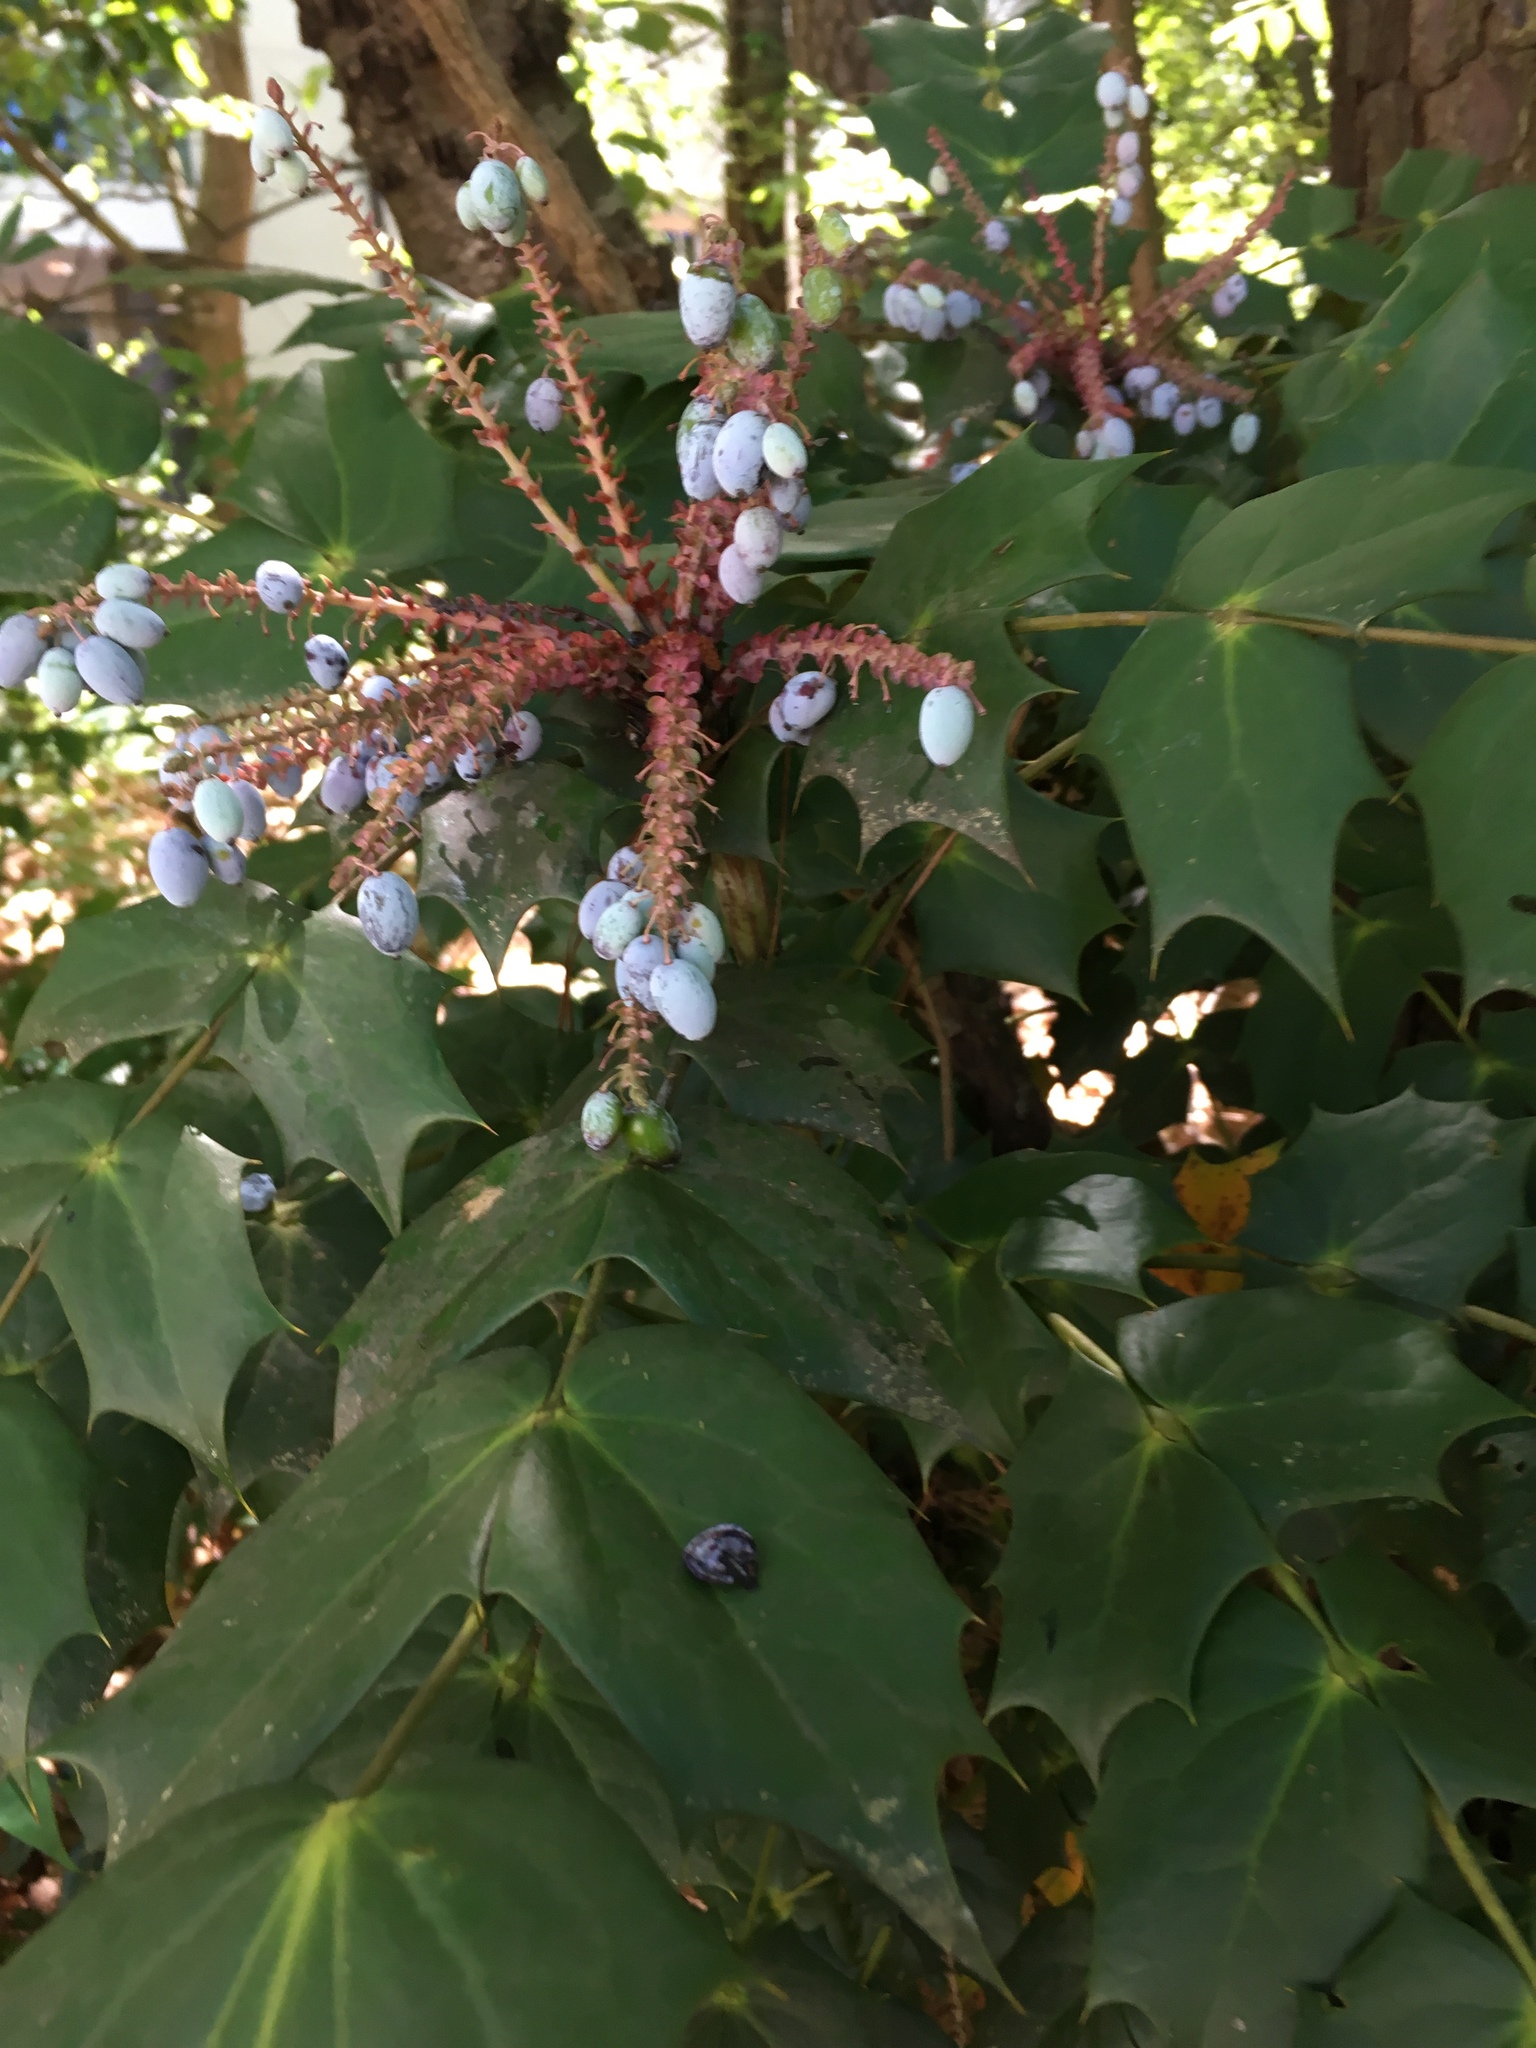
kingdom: Plantae
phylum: Tracheophyta
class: Magnoliopsida
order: Ranunculales
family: Berberidaceae
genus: Mahonia
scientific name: Mahonia bealei
